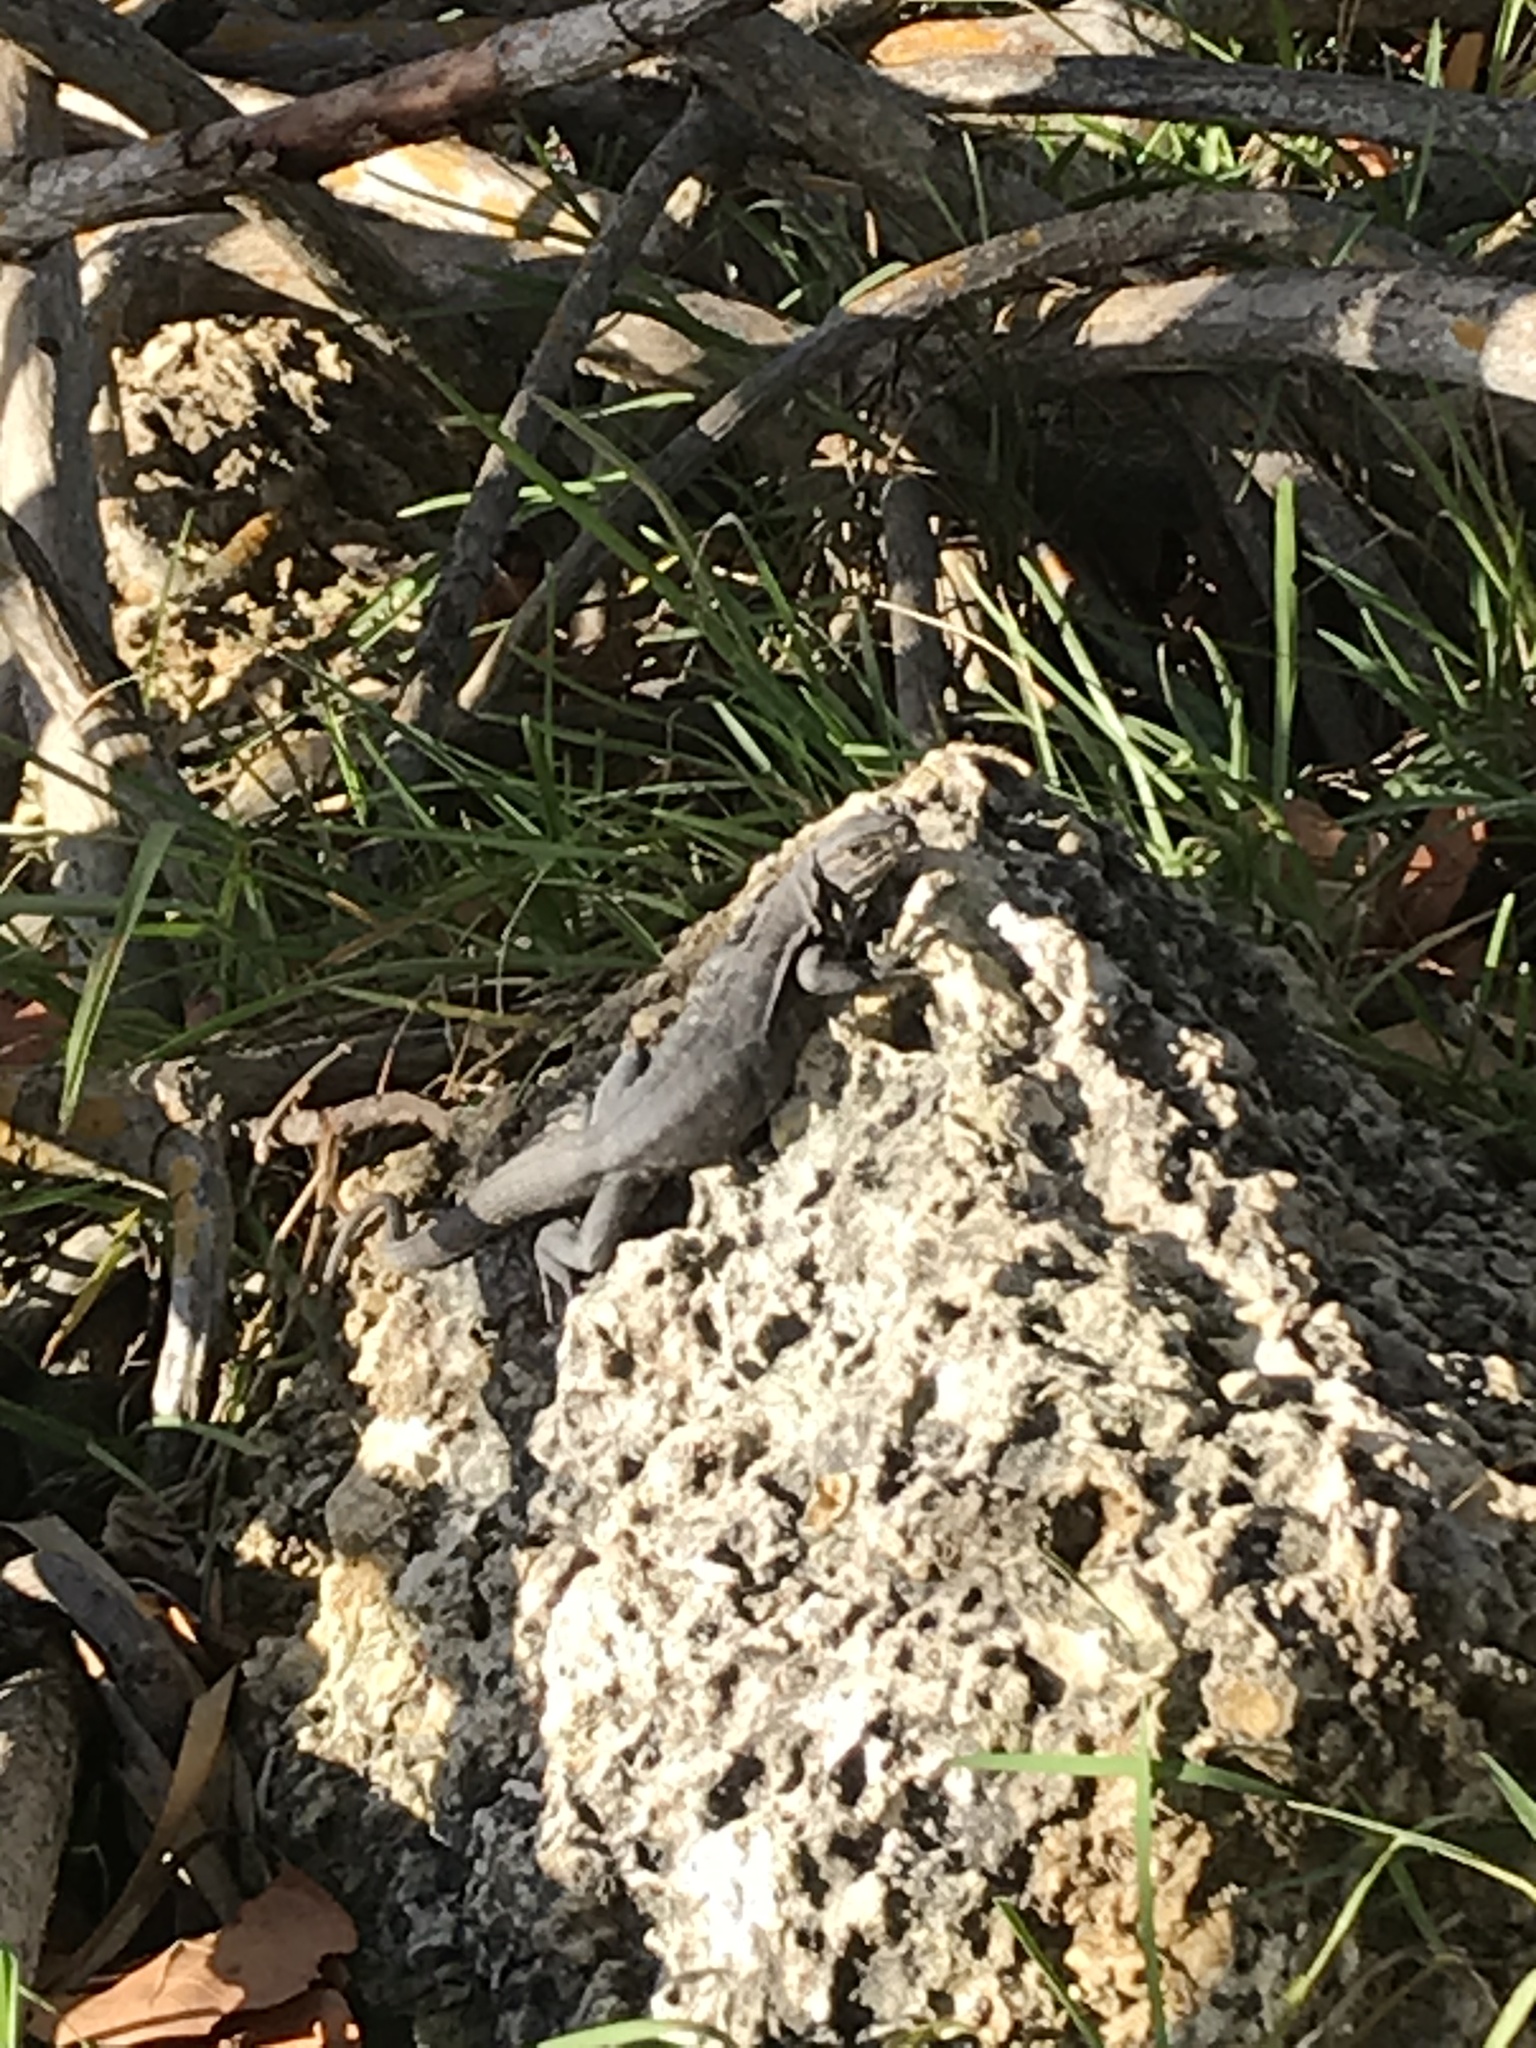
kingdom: Animalia
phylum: Chordata
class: Squamata
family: Iguanidae
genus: Ctenosaura
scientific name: Ctenosaura similis
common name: Black spiny-tailed iguana
